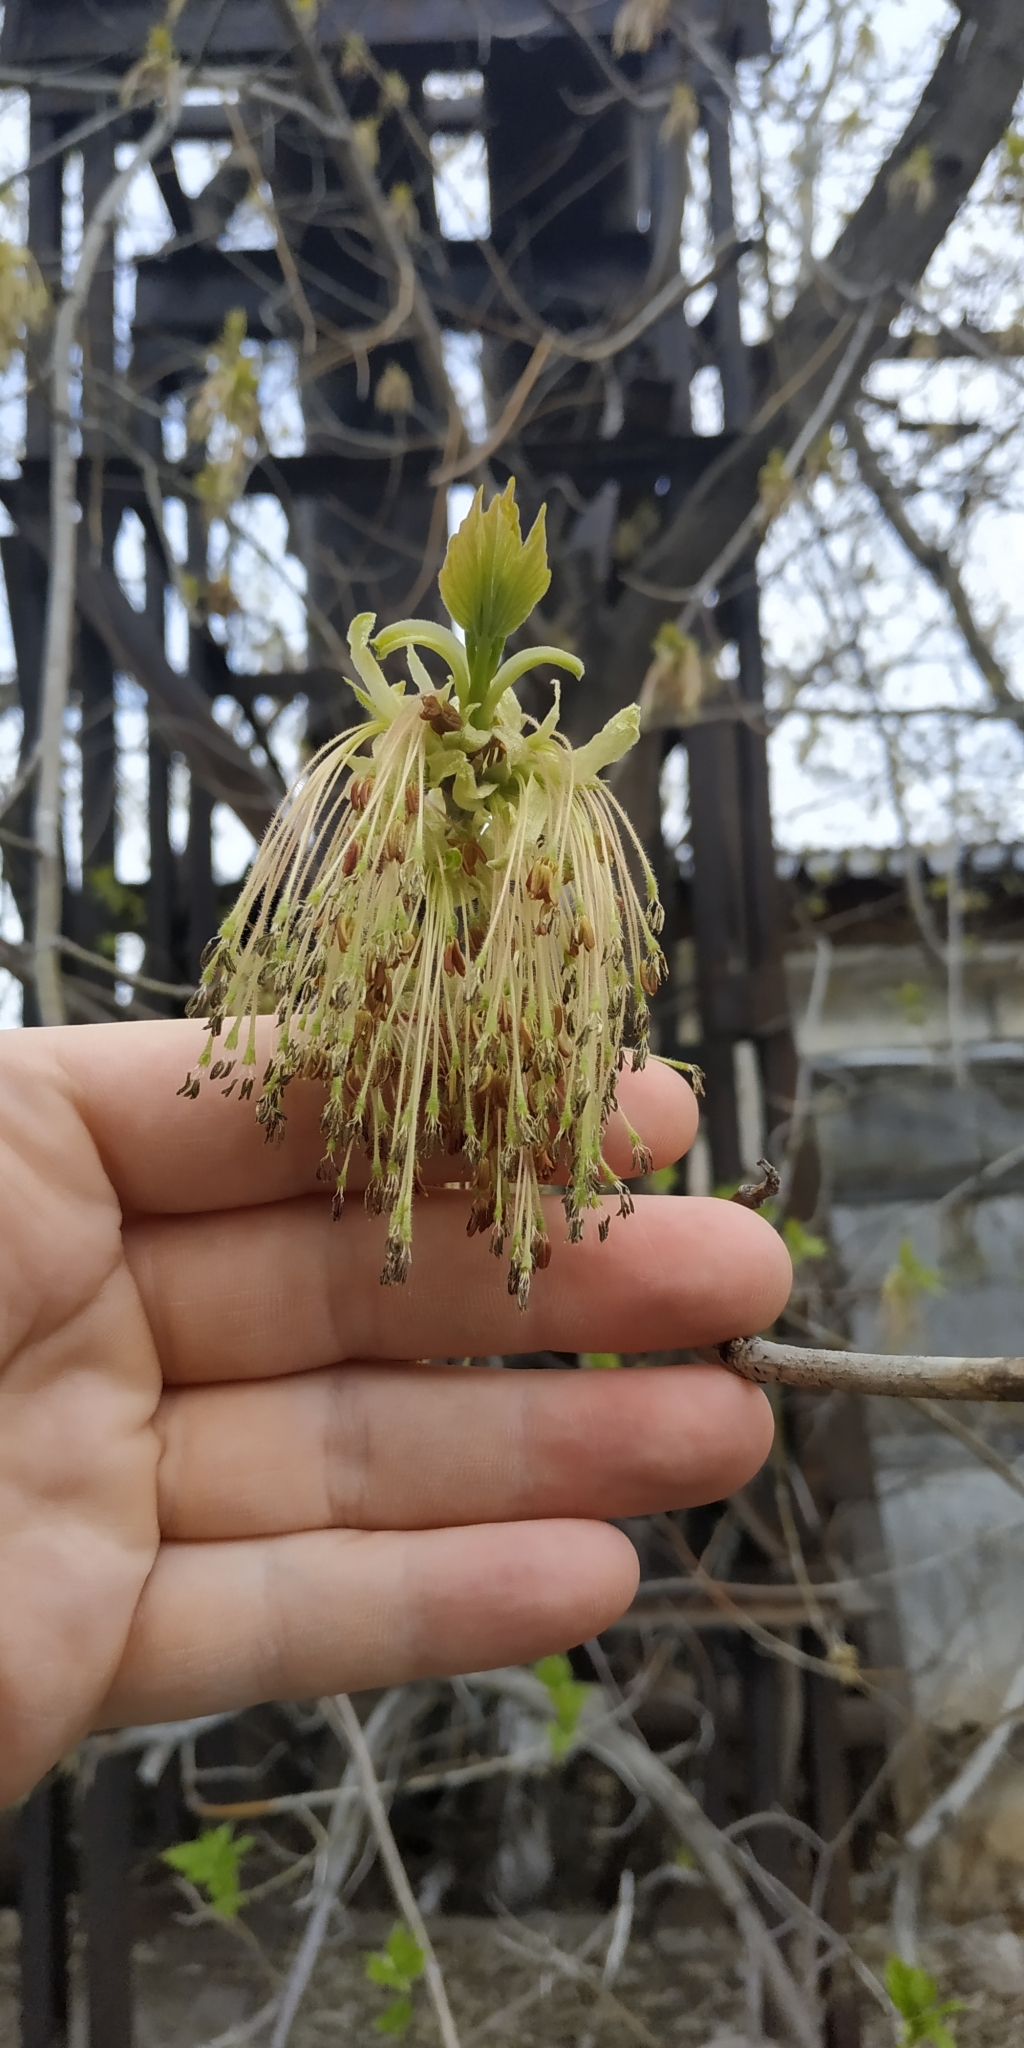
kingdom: Plantae
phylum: Tracheophyta
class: Magnoliopsida
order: Sapindales
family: Sapindaceae
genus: Acer
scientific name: Acer negundo
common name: Ashleaf maple
